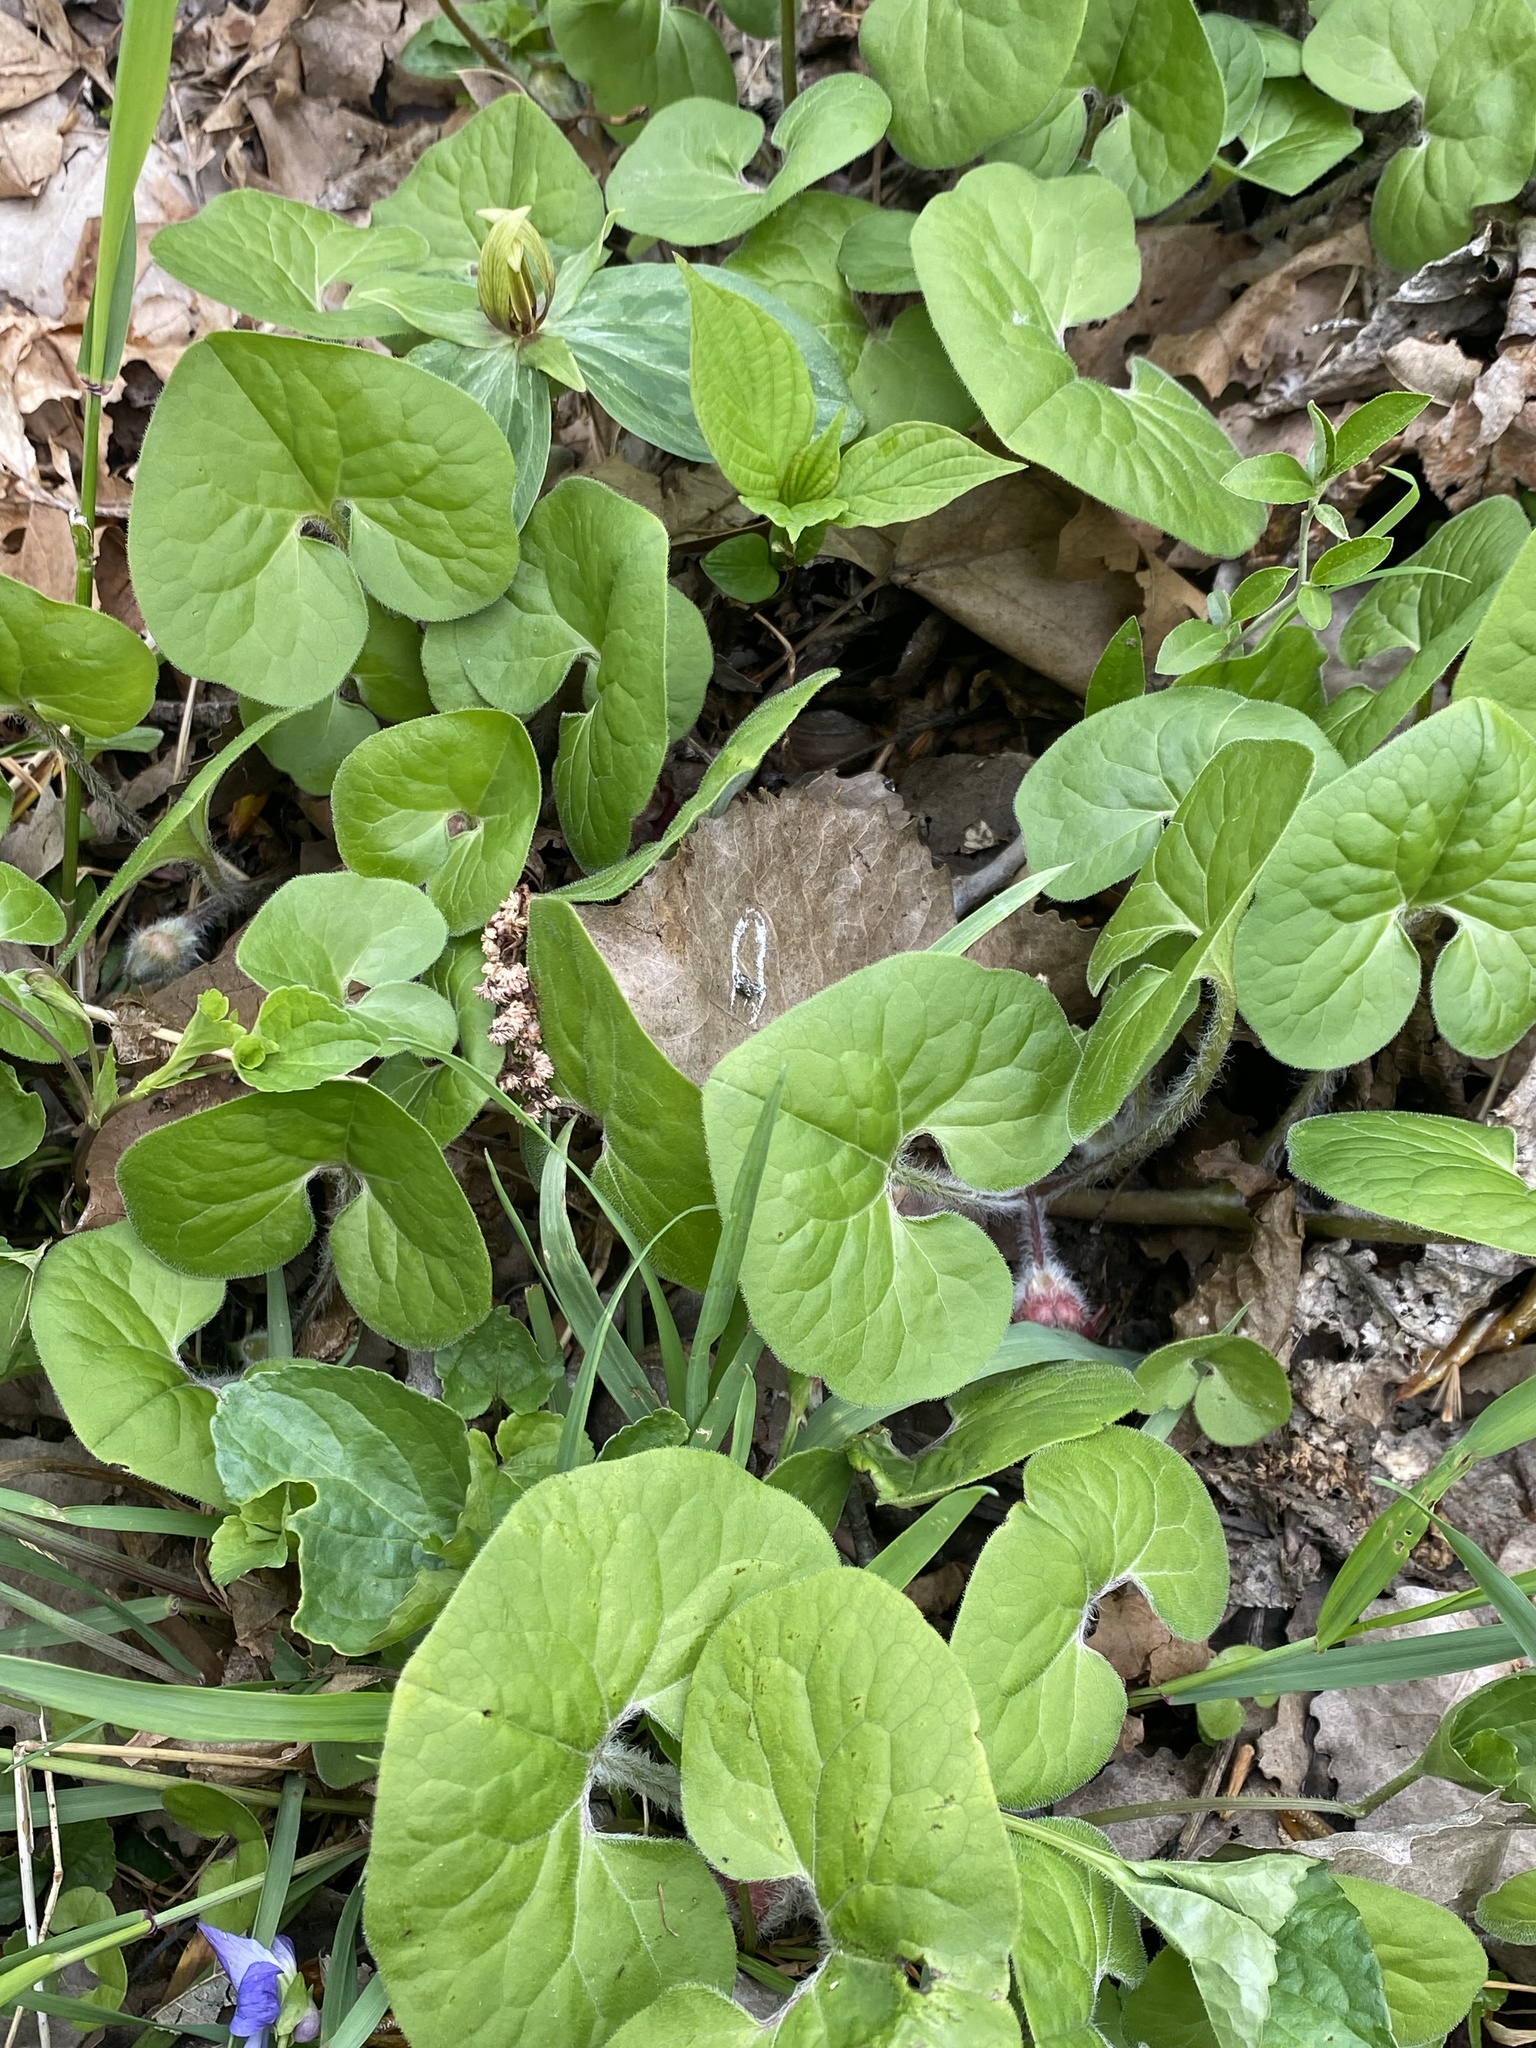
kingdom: Plantae
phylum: Tracheophyta
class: Magnoliopsida
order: Piperales
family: Aristolochiaceae
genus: Asarum
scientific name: Asarum canadense
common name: Wild ginger
